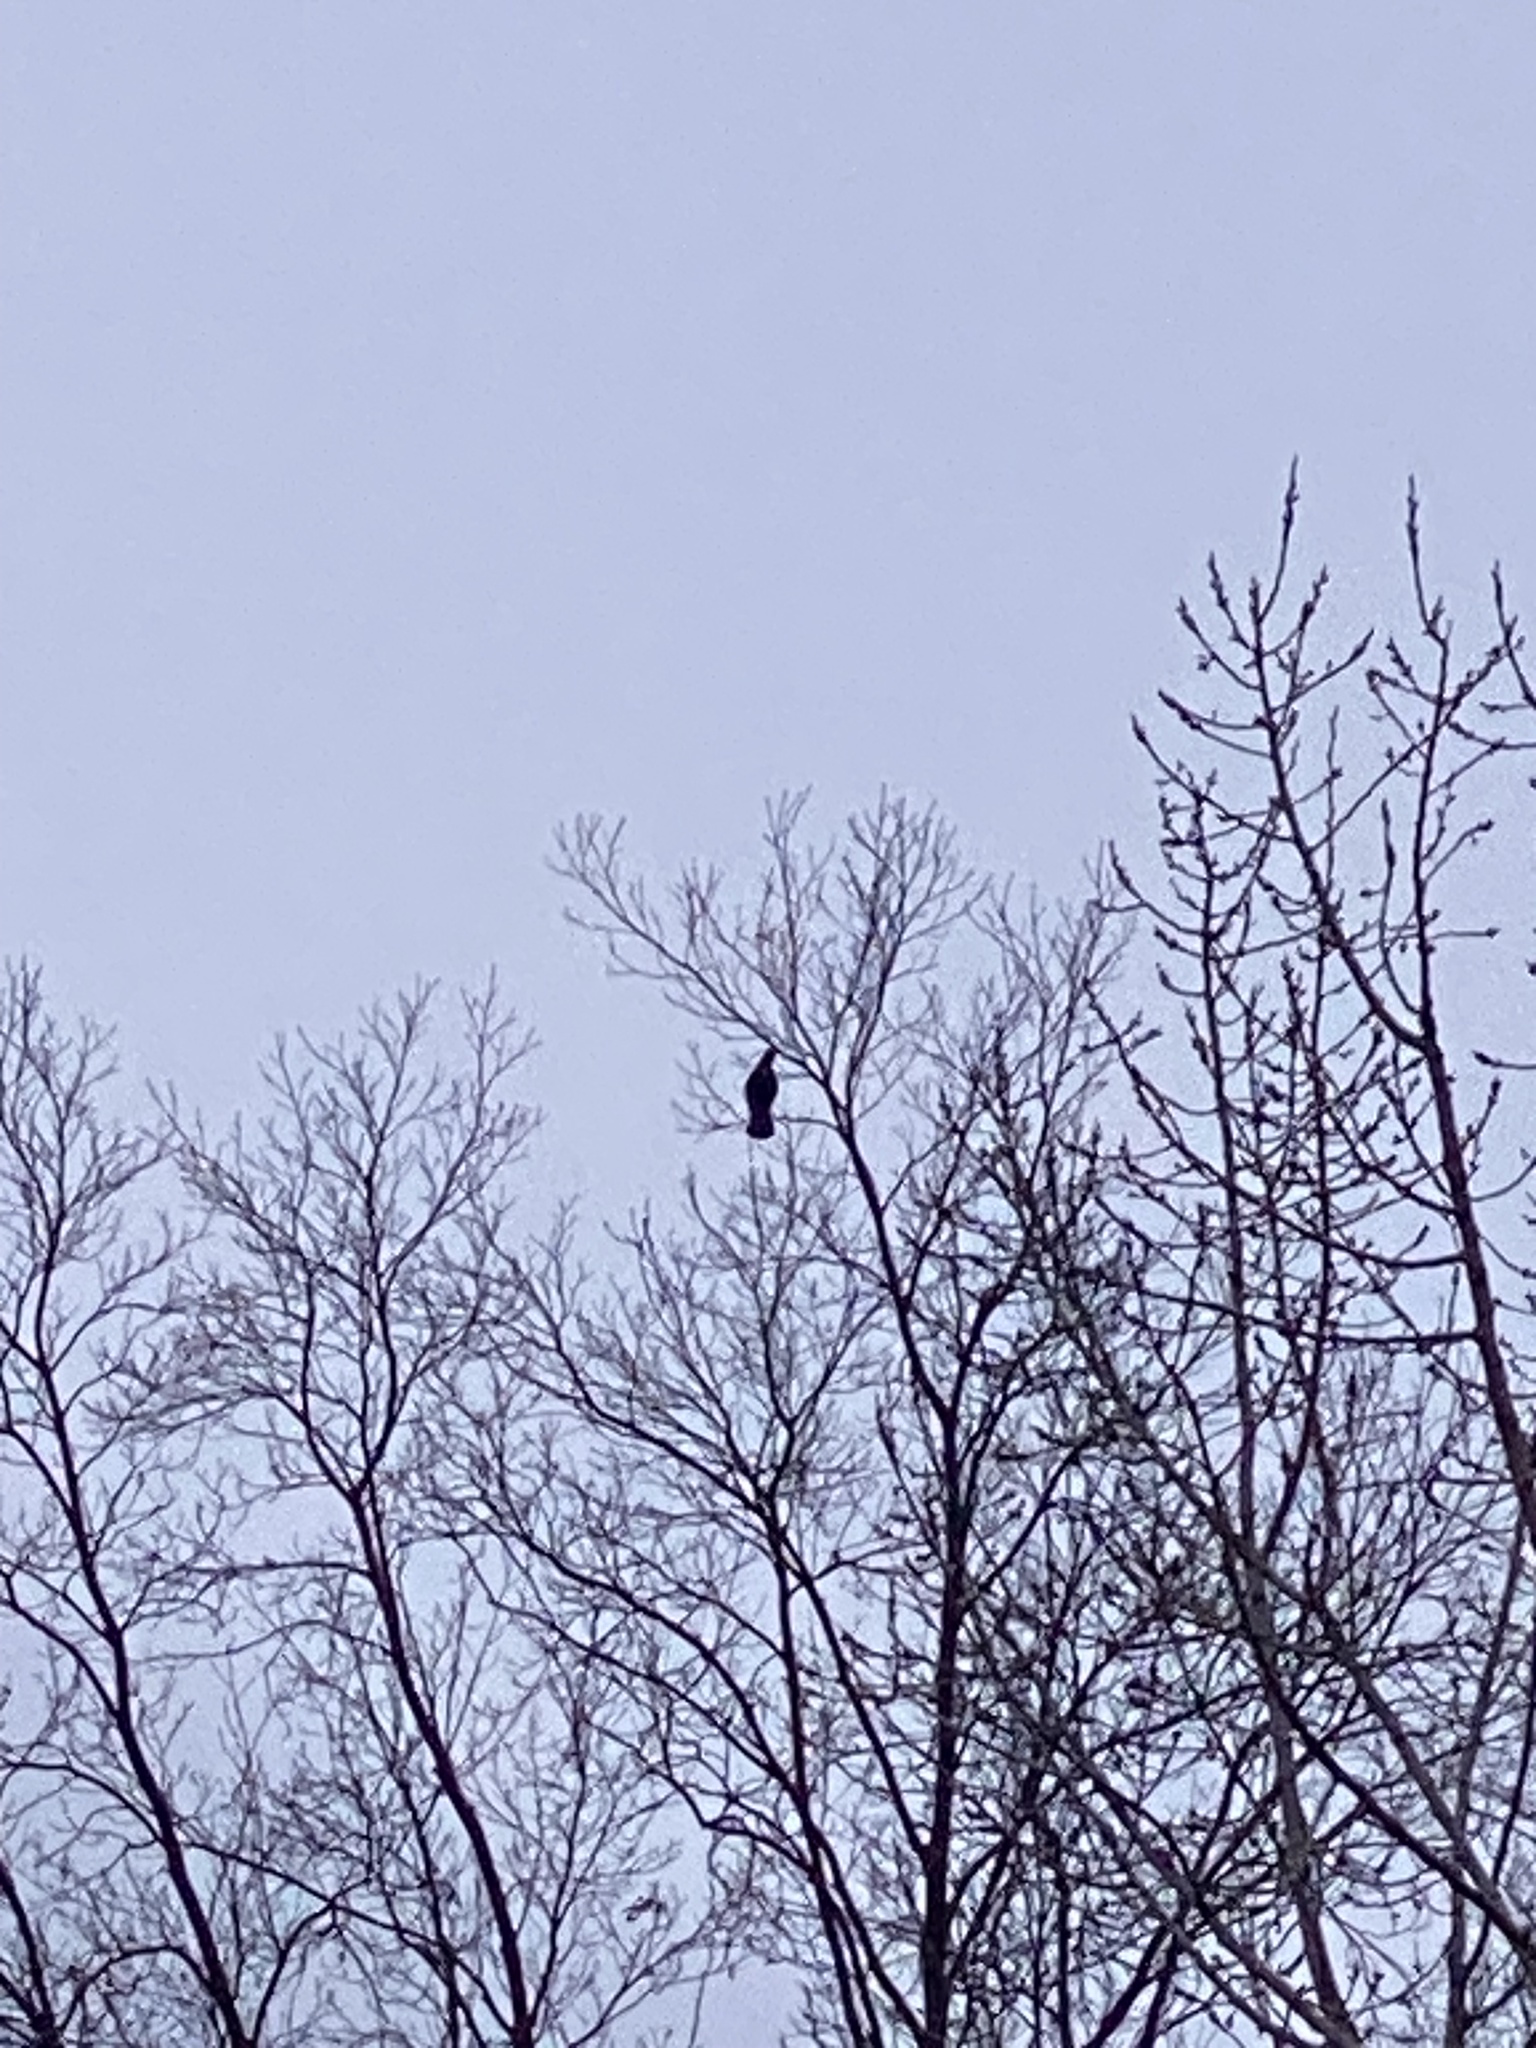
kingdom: Animalia
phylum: Chordata
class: Aves
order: Passeriformes
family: Corvidae
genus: Corvus
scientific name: Corvus brachyrhynchos
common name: American crow
